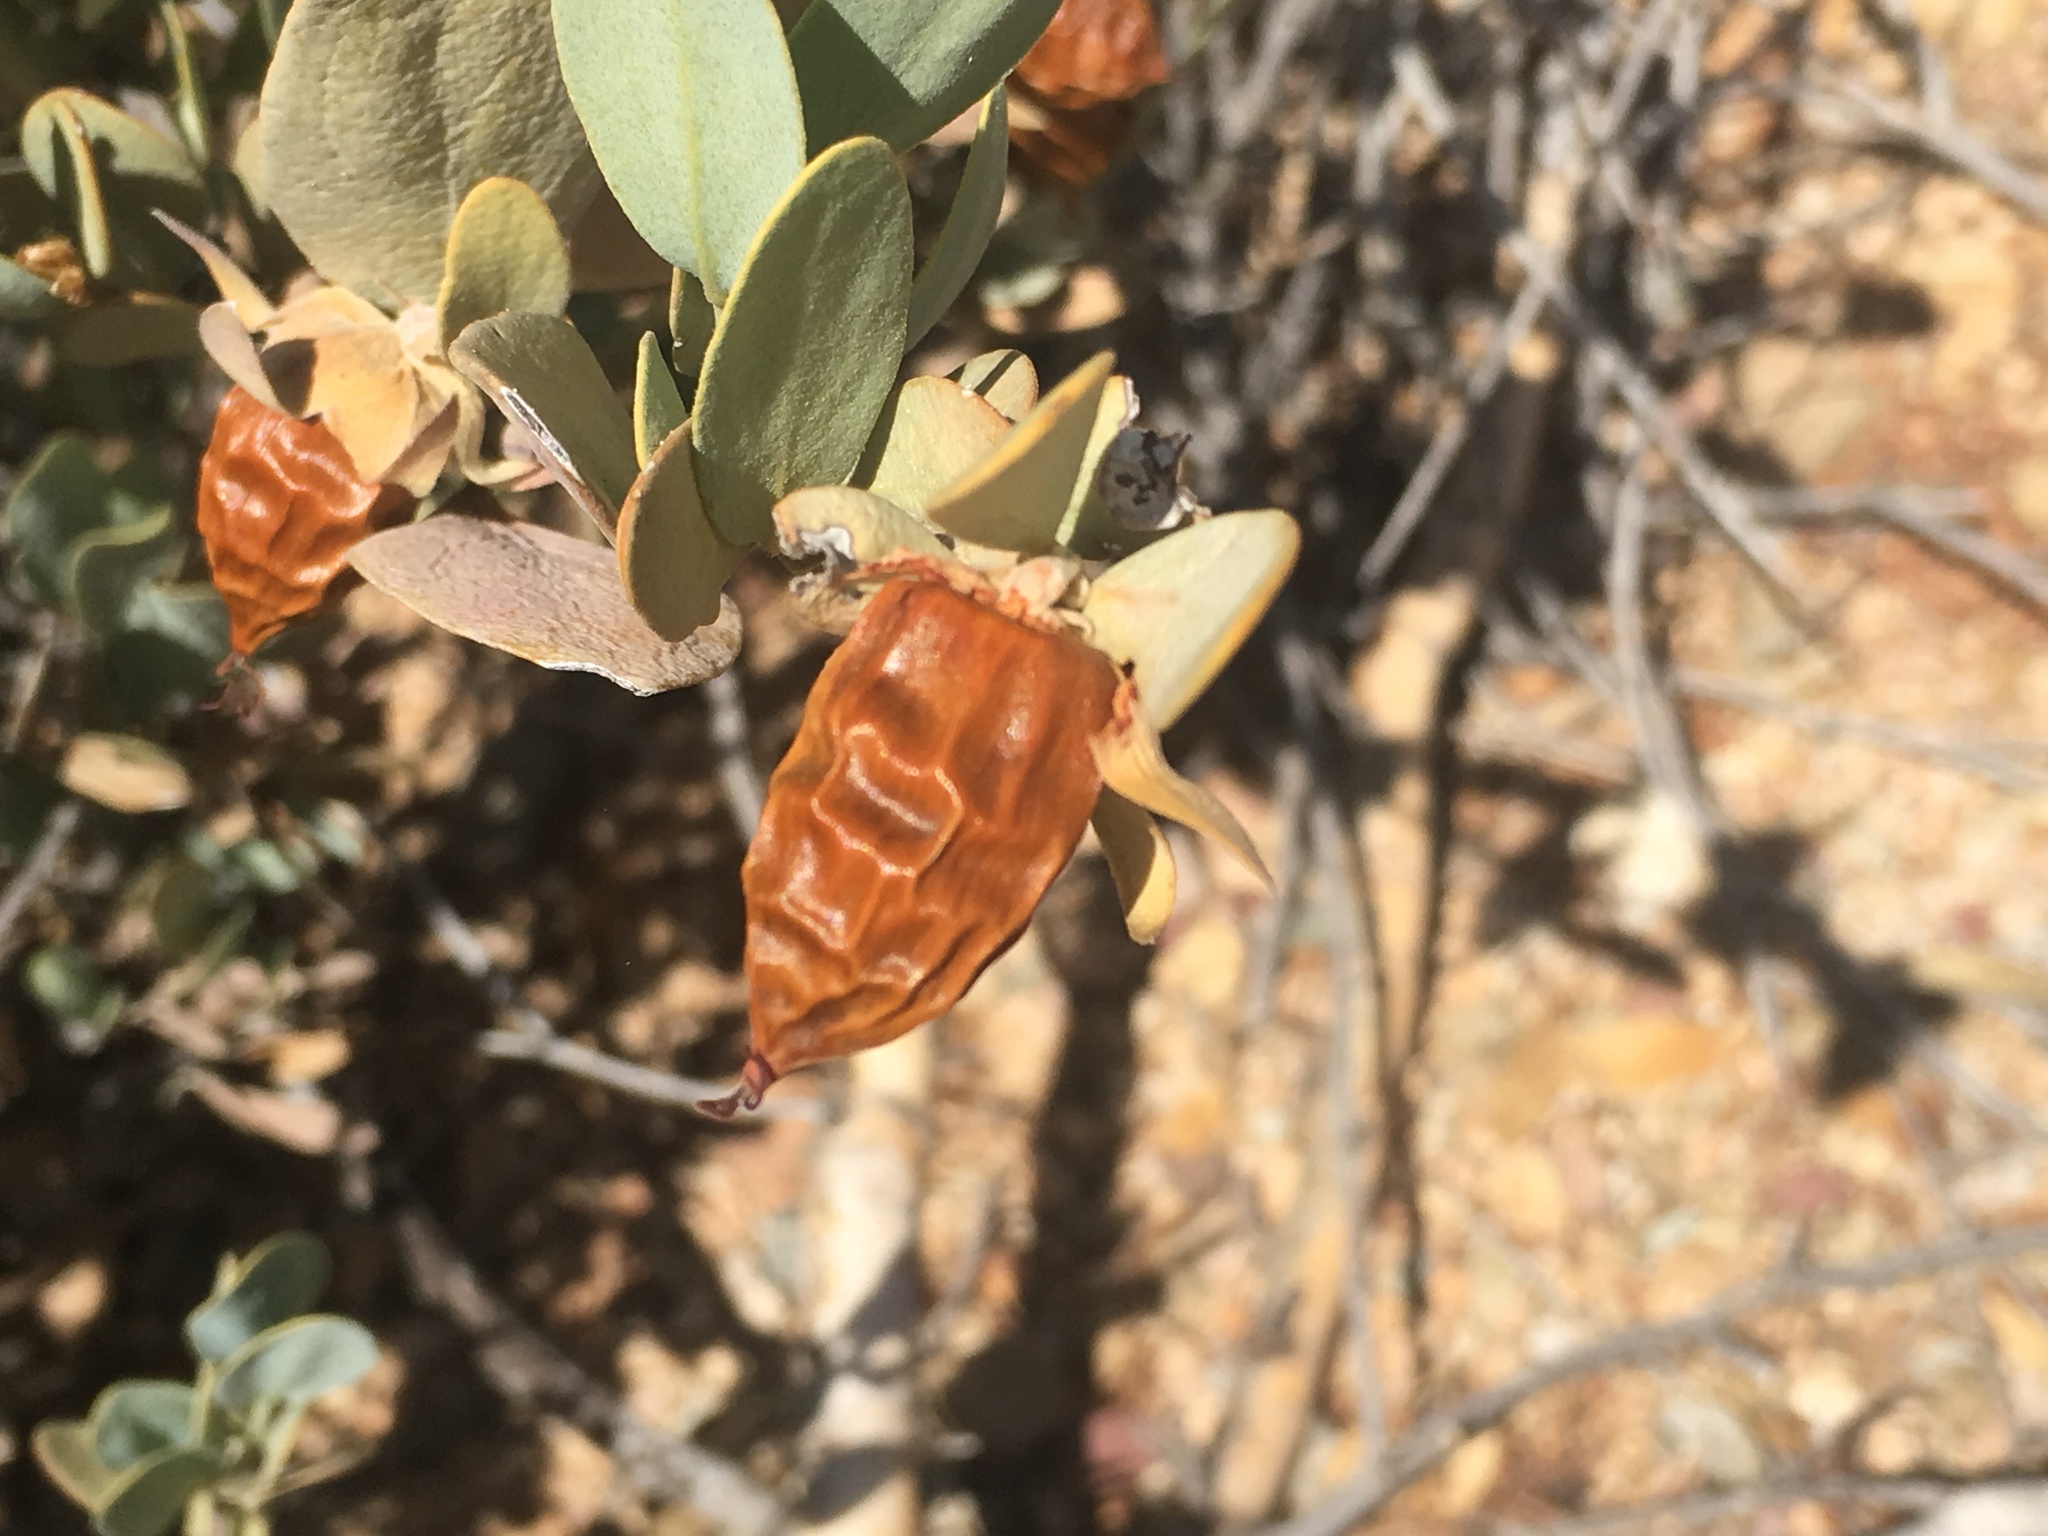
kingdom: Plantae
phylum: Tracheophyta
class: Magnoliopsida
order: Caryophyllales
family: Simmondsiaceae
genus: Simmondsia
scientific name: Simmondsia chinensis
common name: Jojoba
